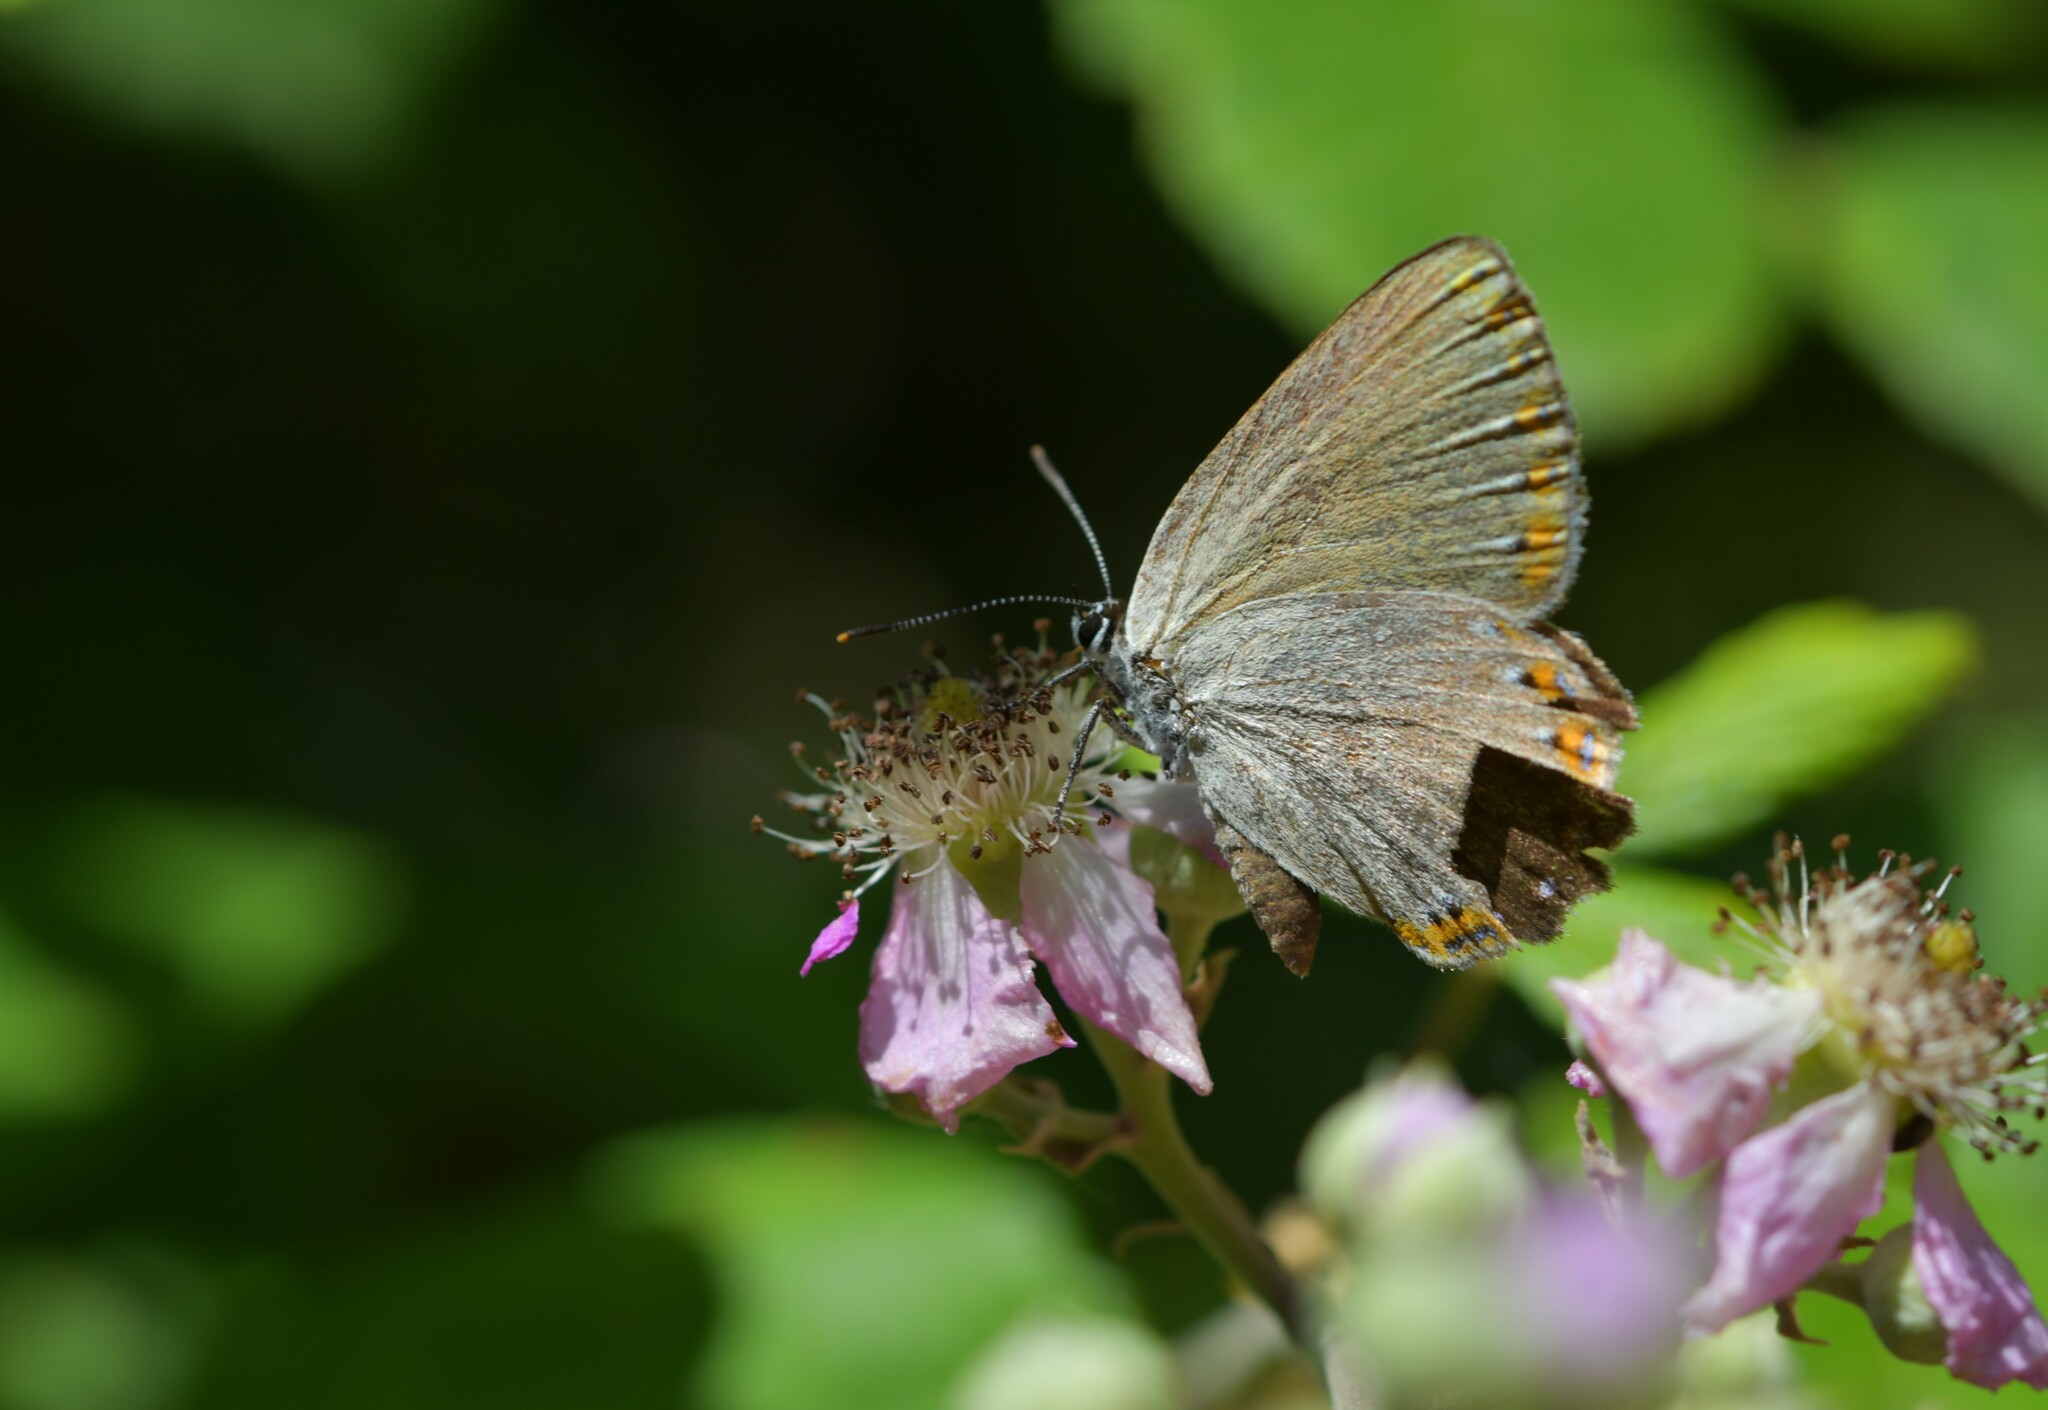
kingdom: Animalia
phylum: Arthropoda
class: Insecta
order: Lepidoptera
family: Lycaenidae
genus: Laeosopis
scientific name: Laeosopis roboris
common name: Spanish purple hairstreak
